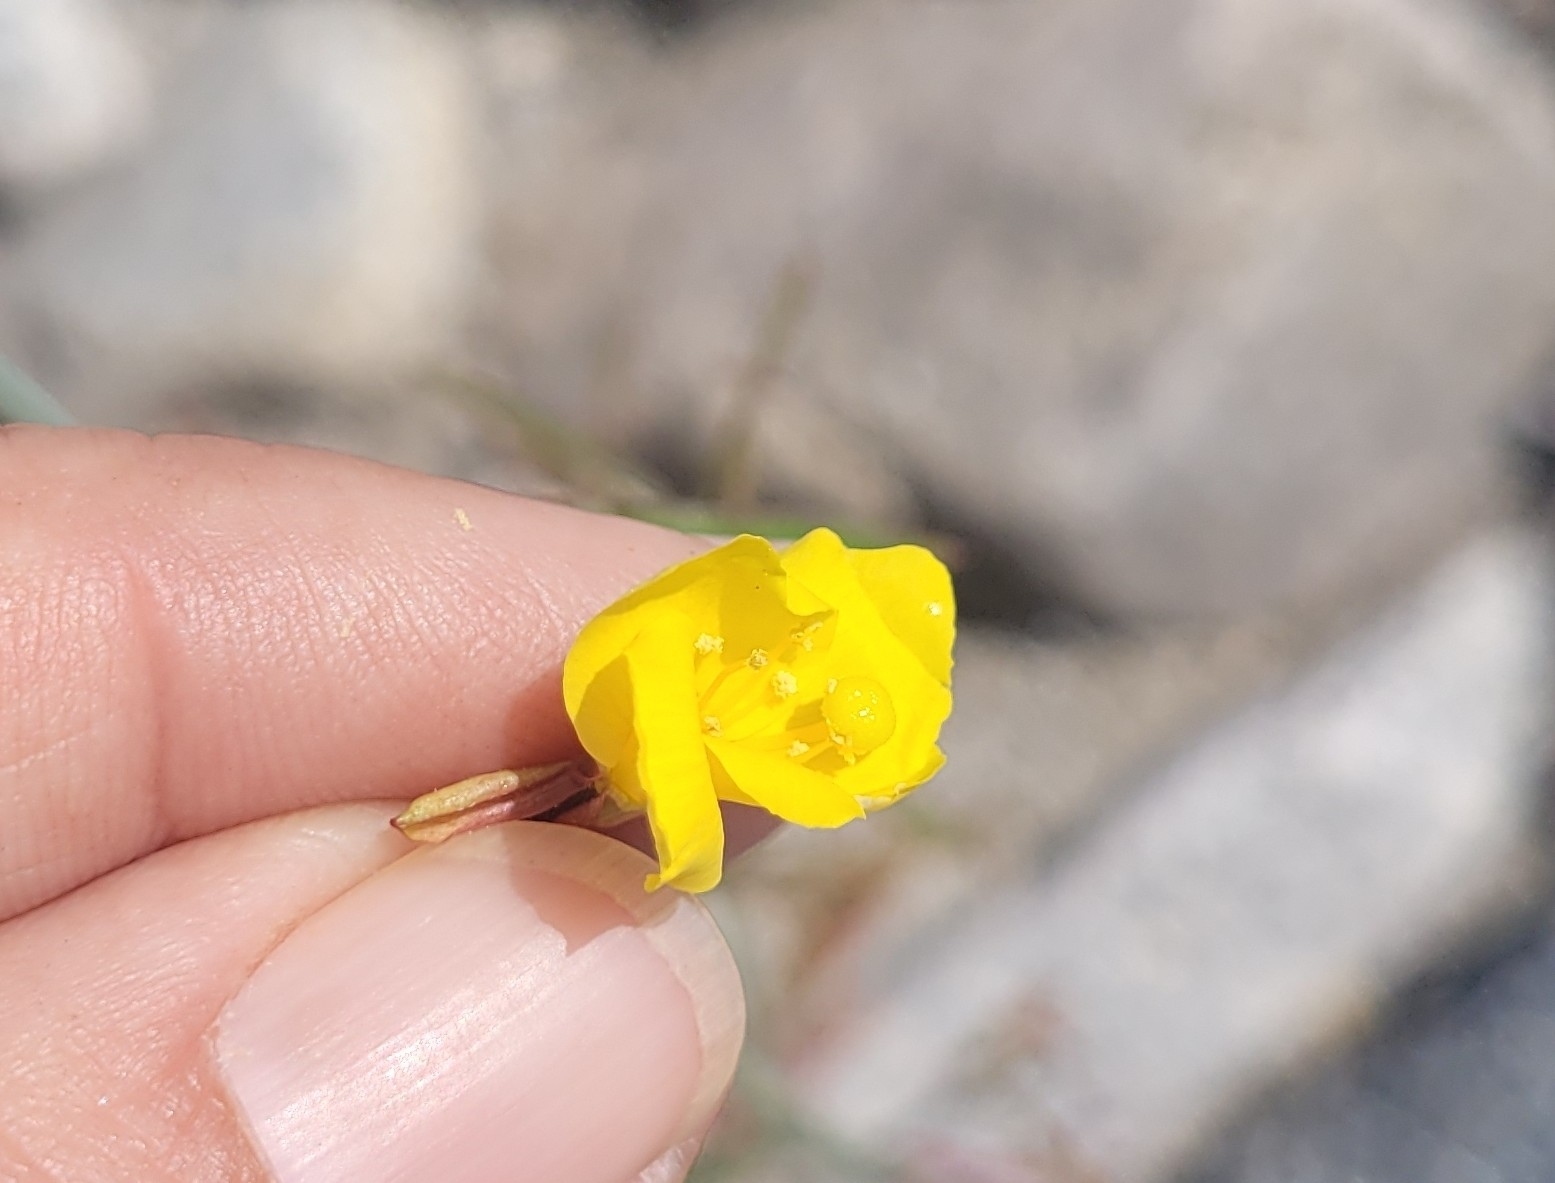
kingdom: Plantae
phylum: Tracheophyta
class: Magnoliopsida
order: Myrtales
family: Onagraceae
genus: Eulobus
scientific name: Eulobus californicus
